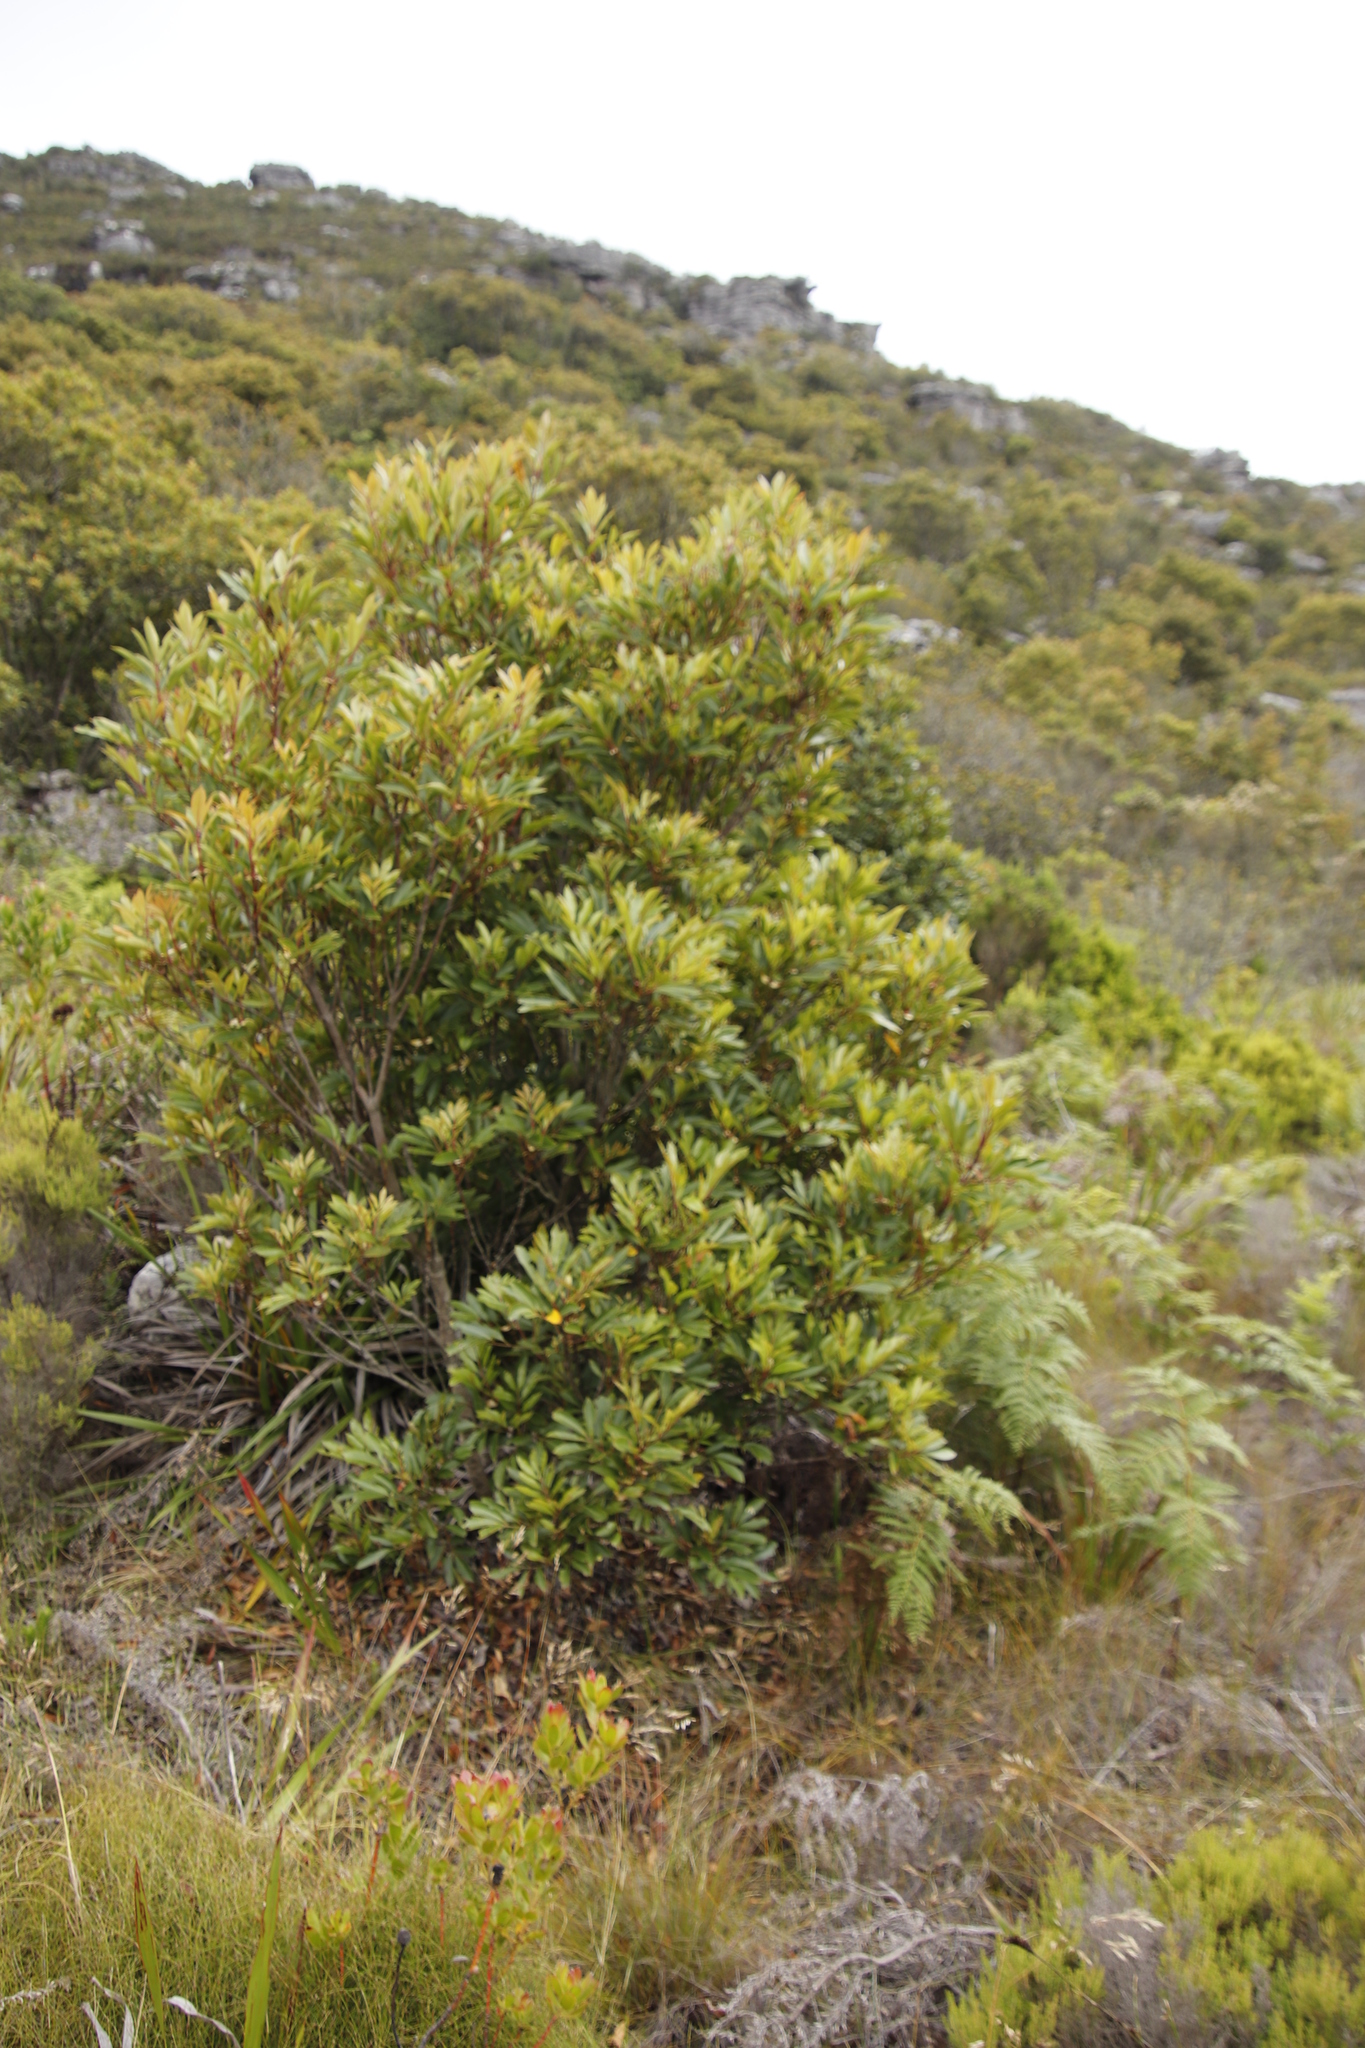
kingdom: Plantae
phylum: Tracheophyta
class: Magnoliopsida
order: Oxalidales
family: Cunoniaceae
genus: Cunonia
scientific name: Cunonia capensis
